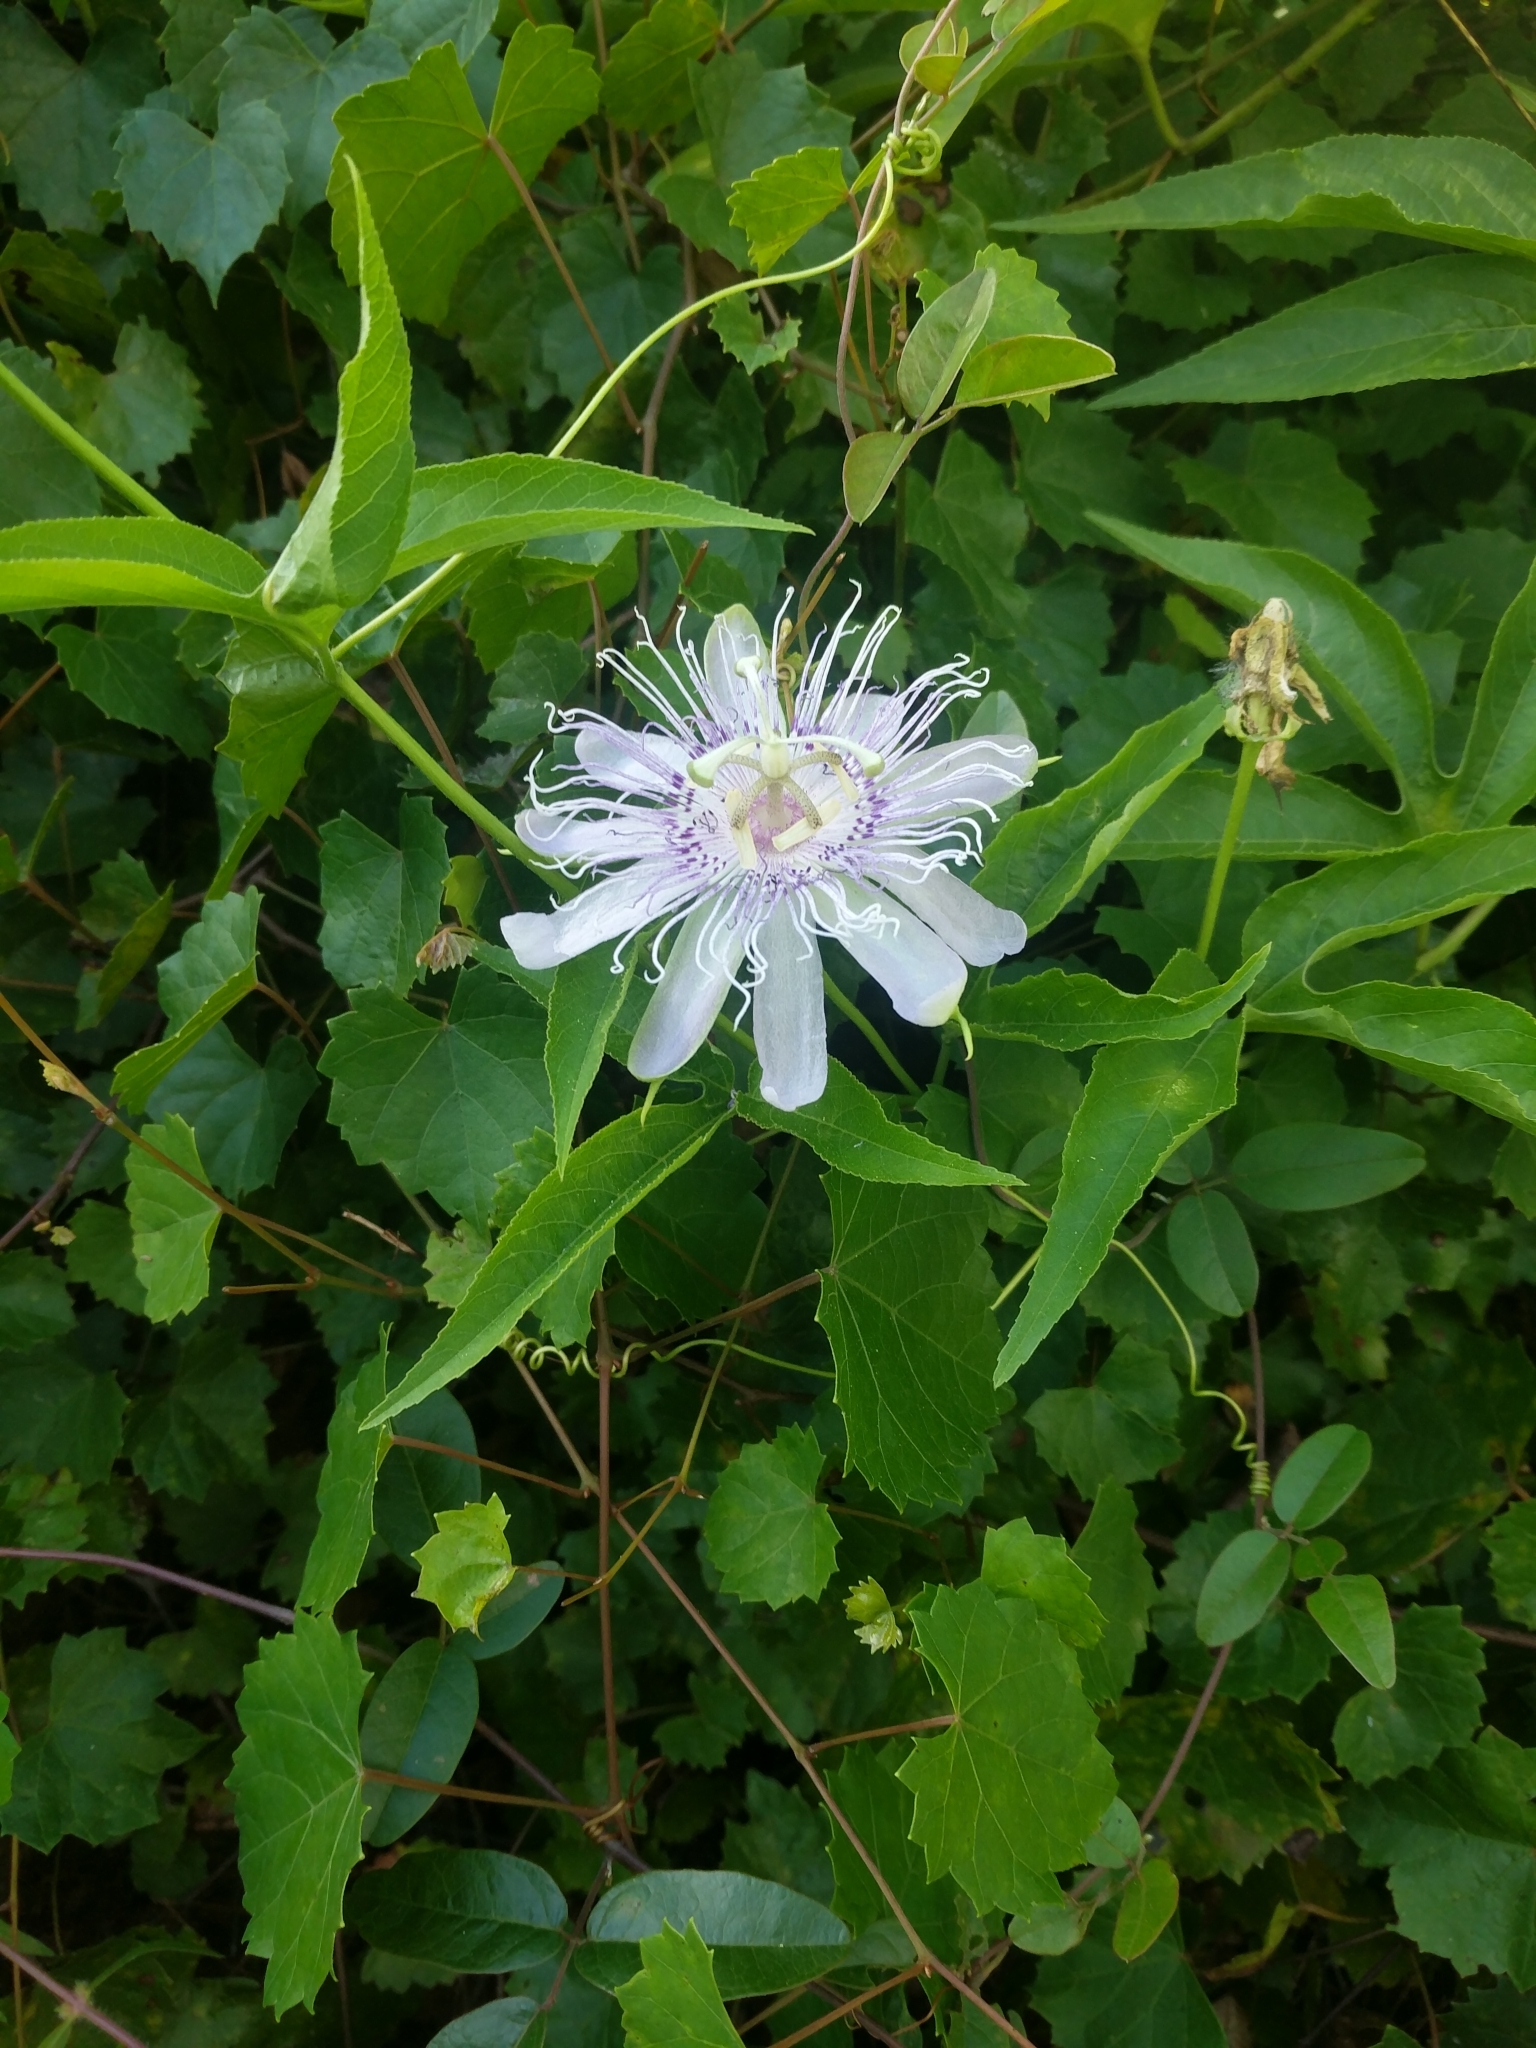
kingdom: Plantae
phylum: Tracheophyta
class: Magnoliopsida
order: Malpighiales
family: Passifloraceae
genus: Passiflora
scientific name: Passiflora incarnata
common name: Apricot-vine
